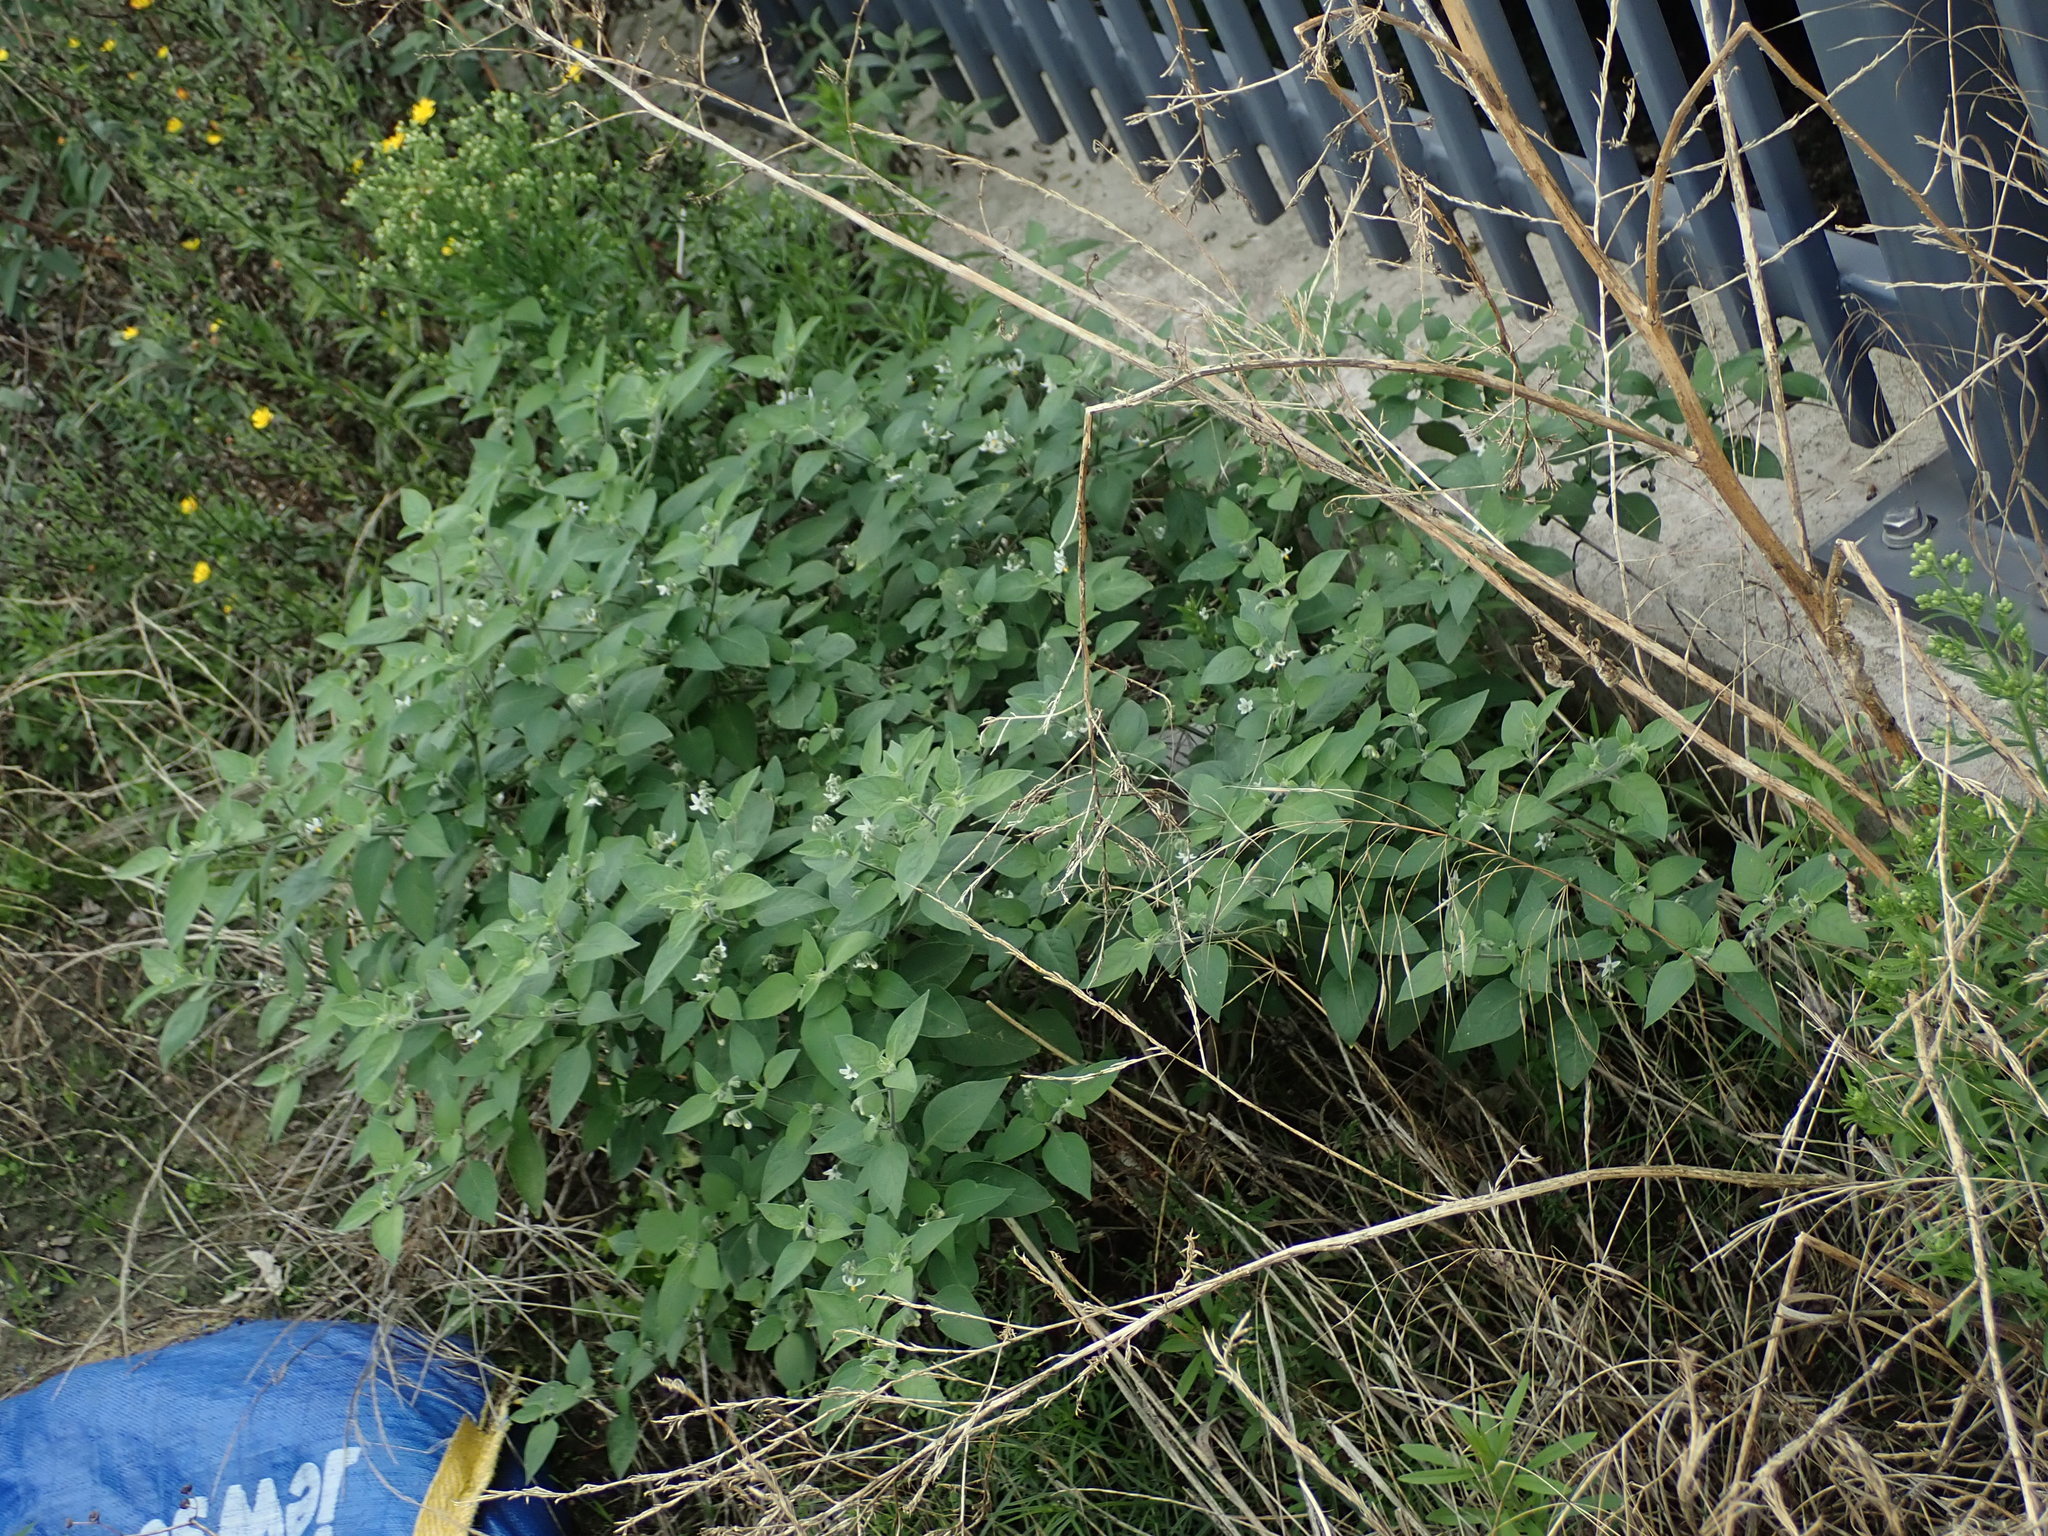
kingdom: Plantae
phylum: Tracheophyta
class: Magnoliopsida
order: Solanales
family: Solanaceae
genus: Solanum
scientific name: Solanum chenopodioides
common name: Tall nightshade
